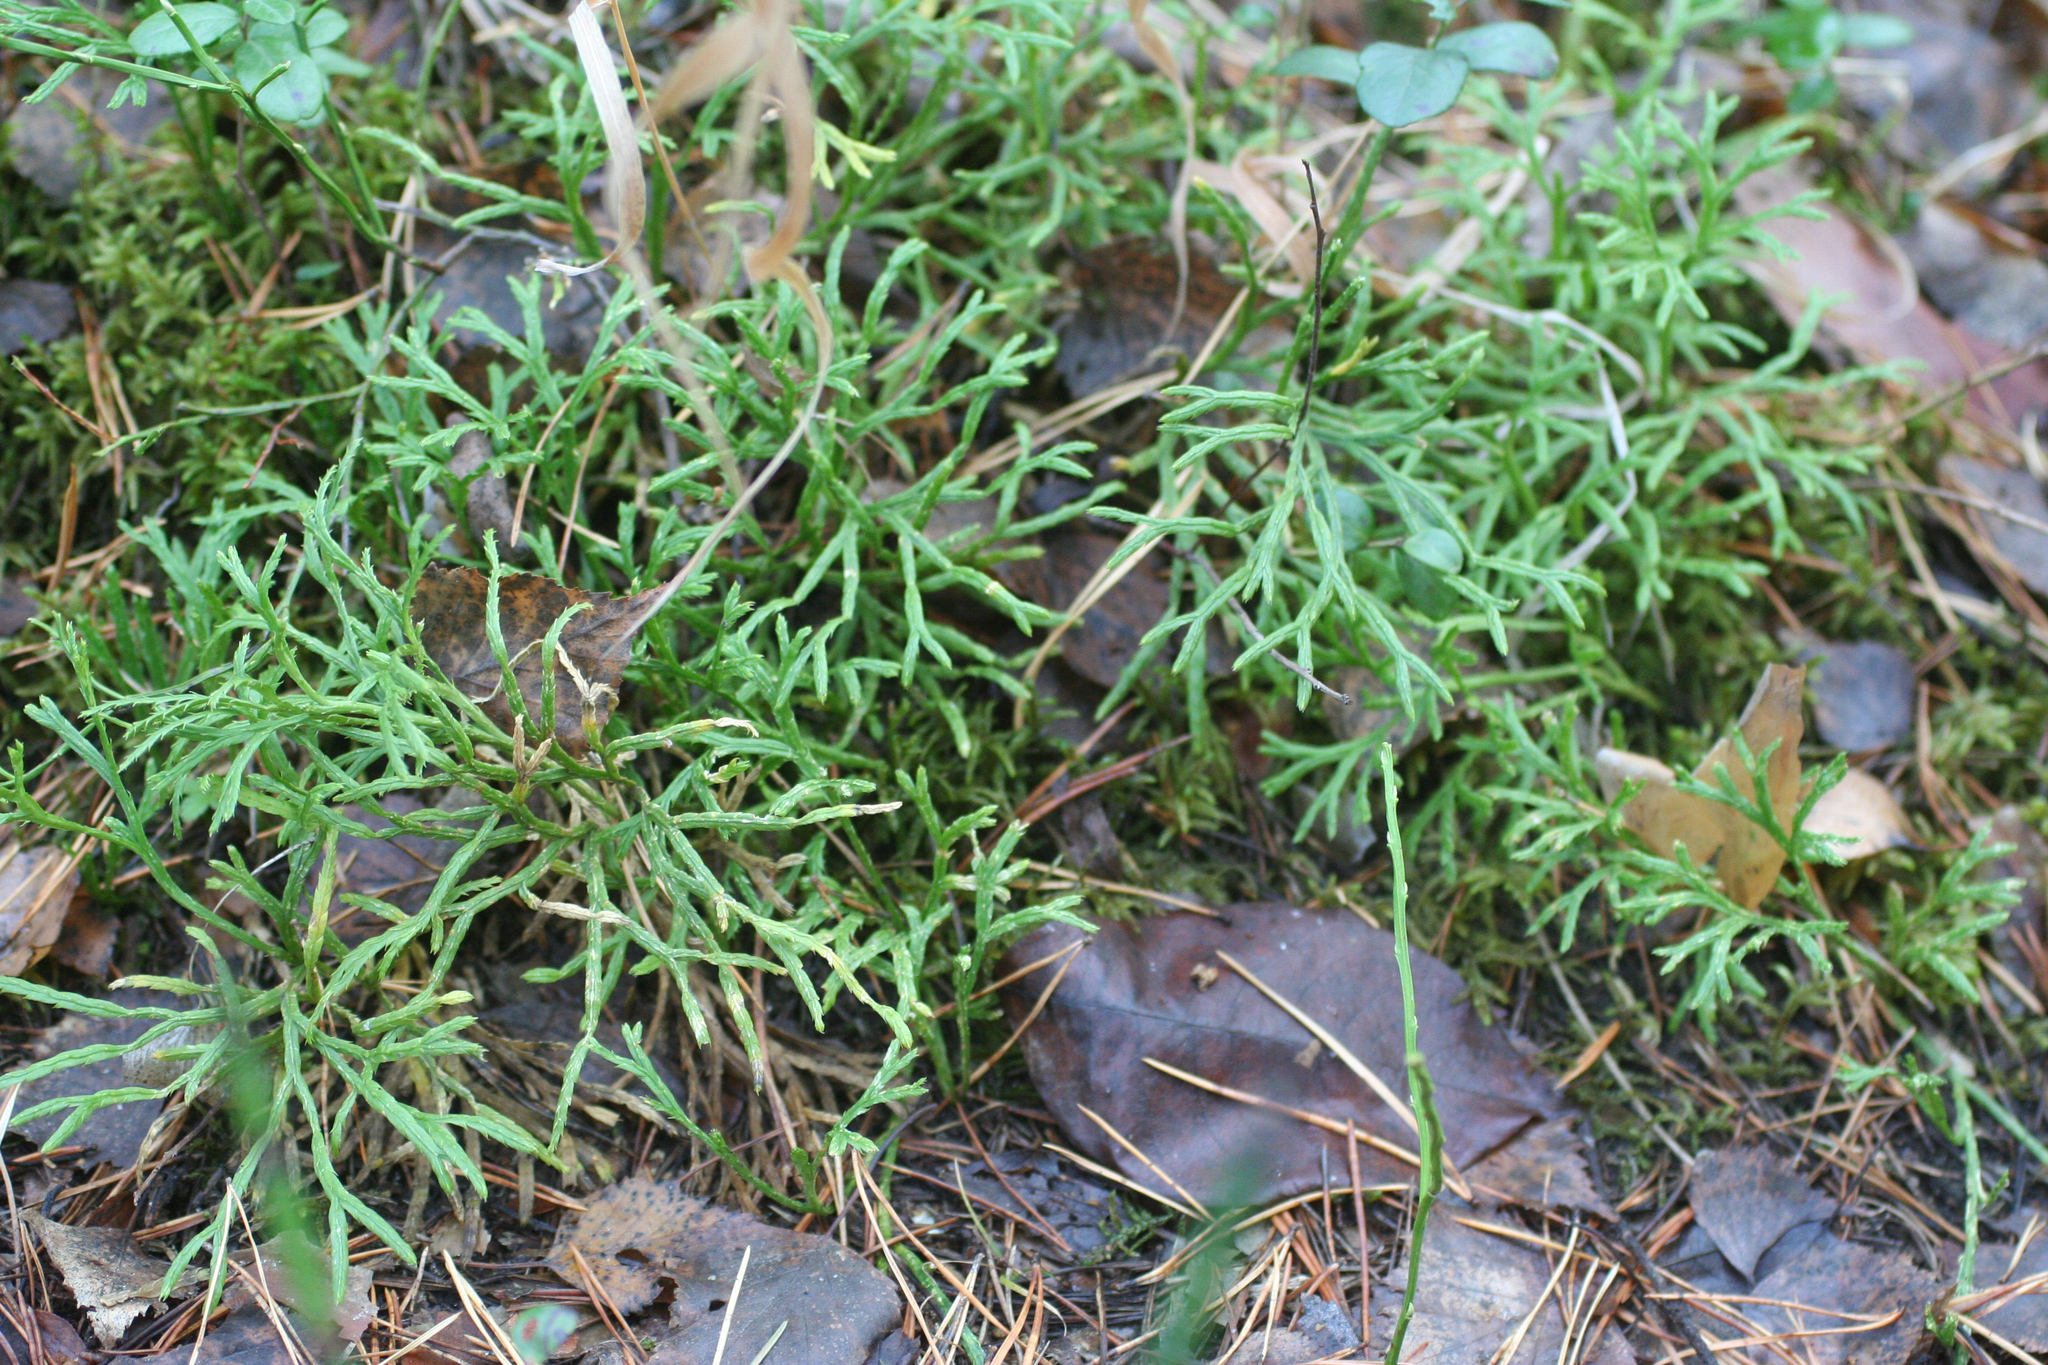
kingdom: Plantae
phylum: Tracheophyta
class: Lycopodiopsida
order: Lycopodiales
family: Lycopodiaceae
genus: Diphasiastrum
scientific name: Diphasiastrum complanatum
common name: Northern running-pine
